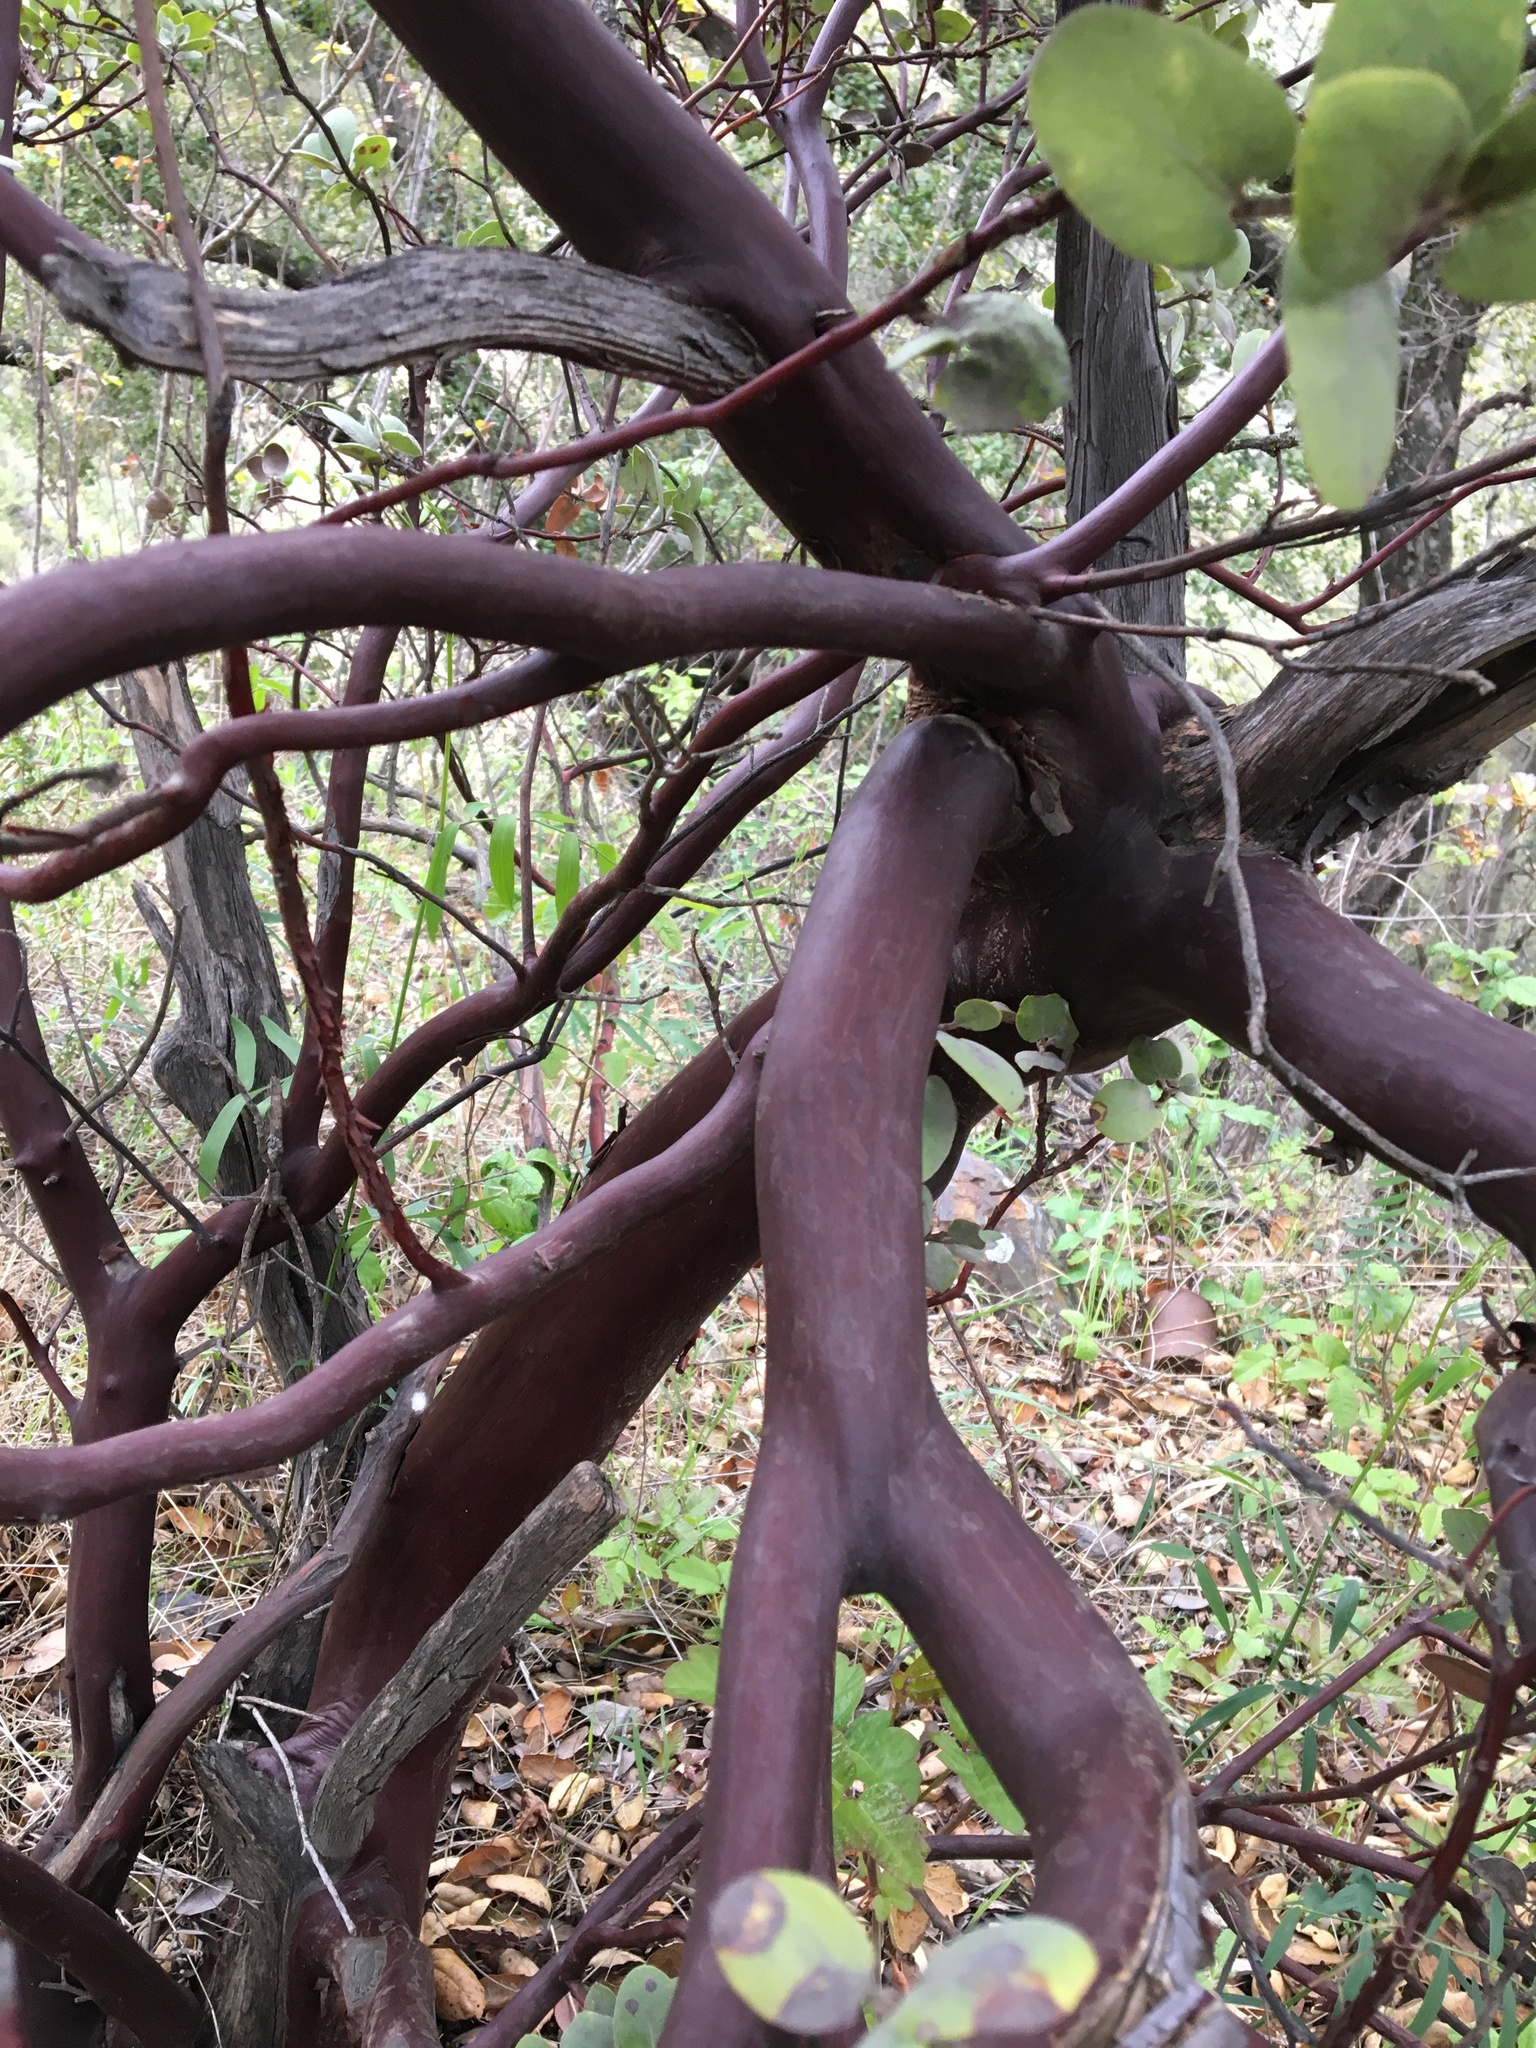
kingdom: Plantae
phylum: Tracheophyta
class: Magnoliopsida
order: Ericales
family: Ericaceae
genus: Arctostaphylos
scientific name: Arctostaphylos luciana
